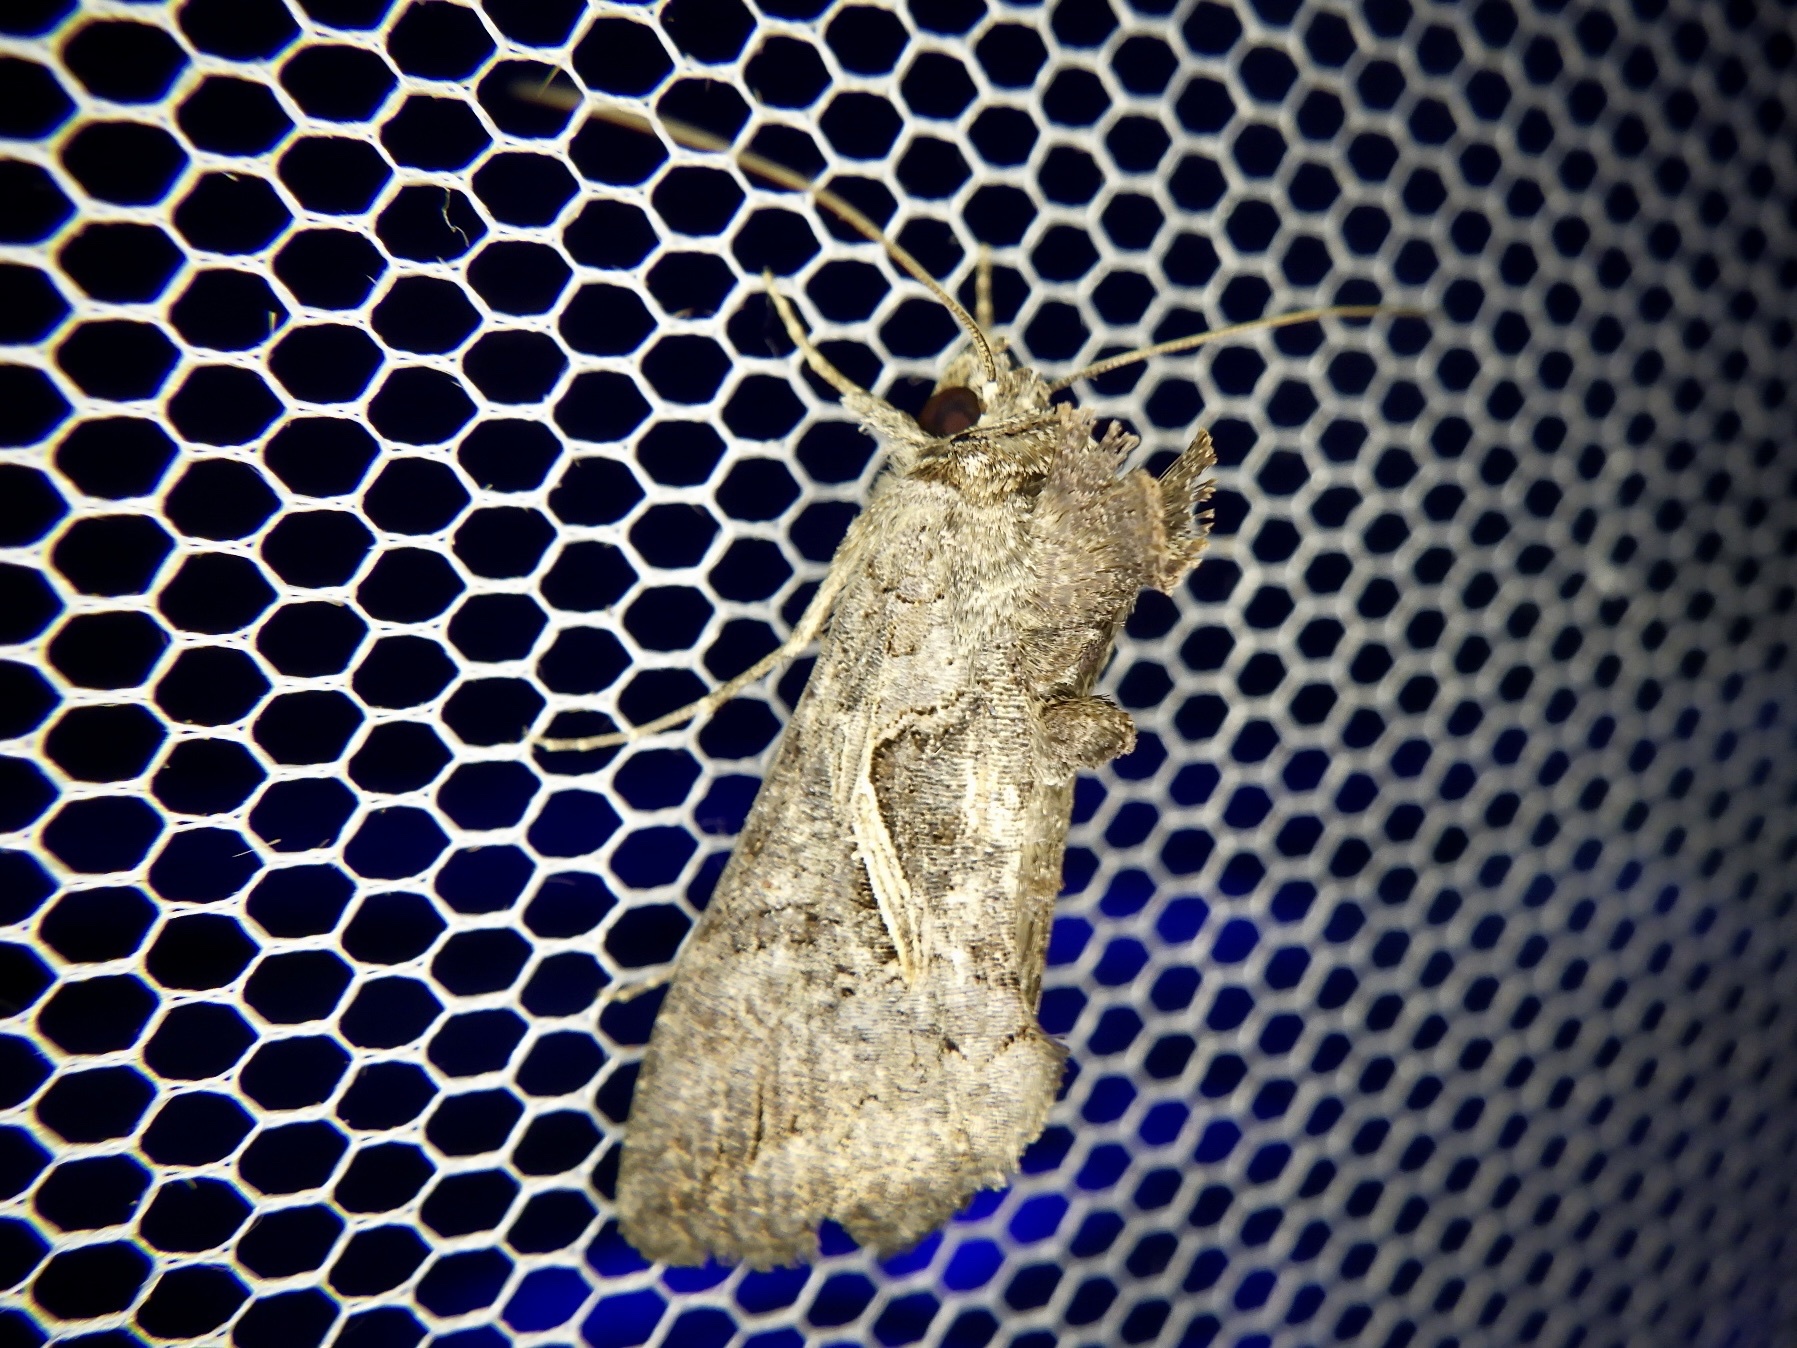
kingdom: Animalia
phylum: Arthropoda
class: Insecta
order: Lepidoptera
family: Noctuidae
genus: Ctenoplusia
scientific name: Ctenoplusia albostriata
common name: Moth
